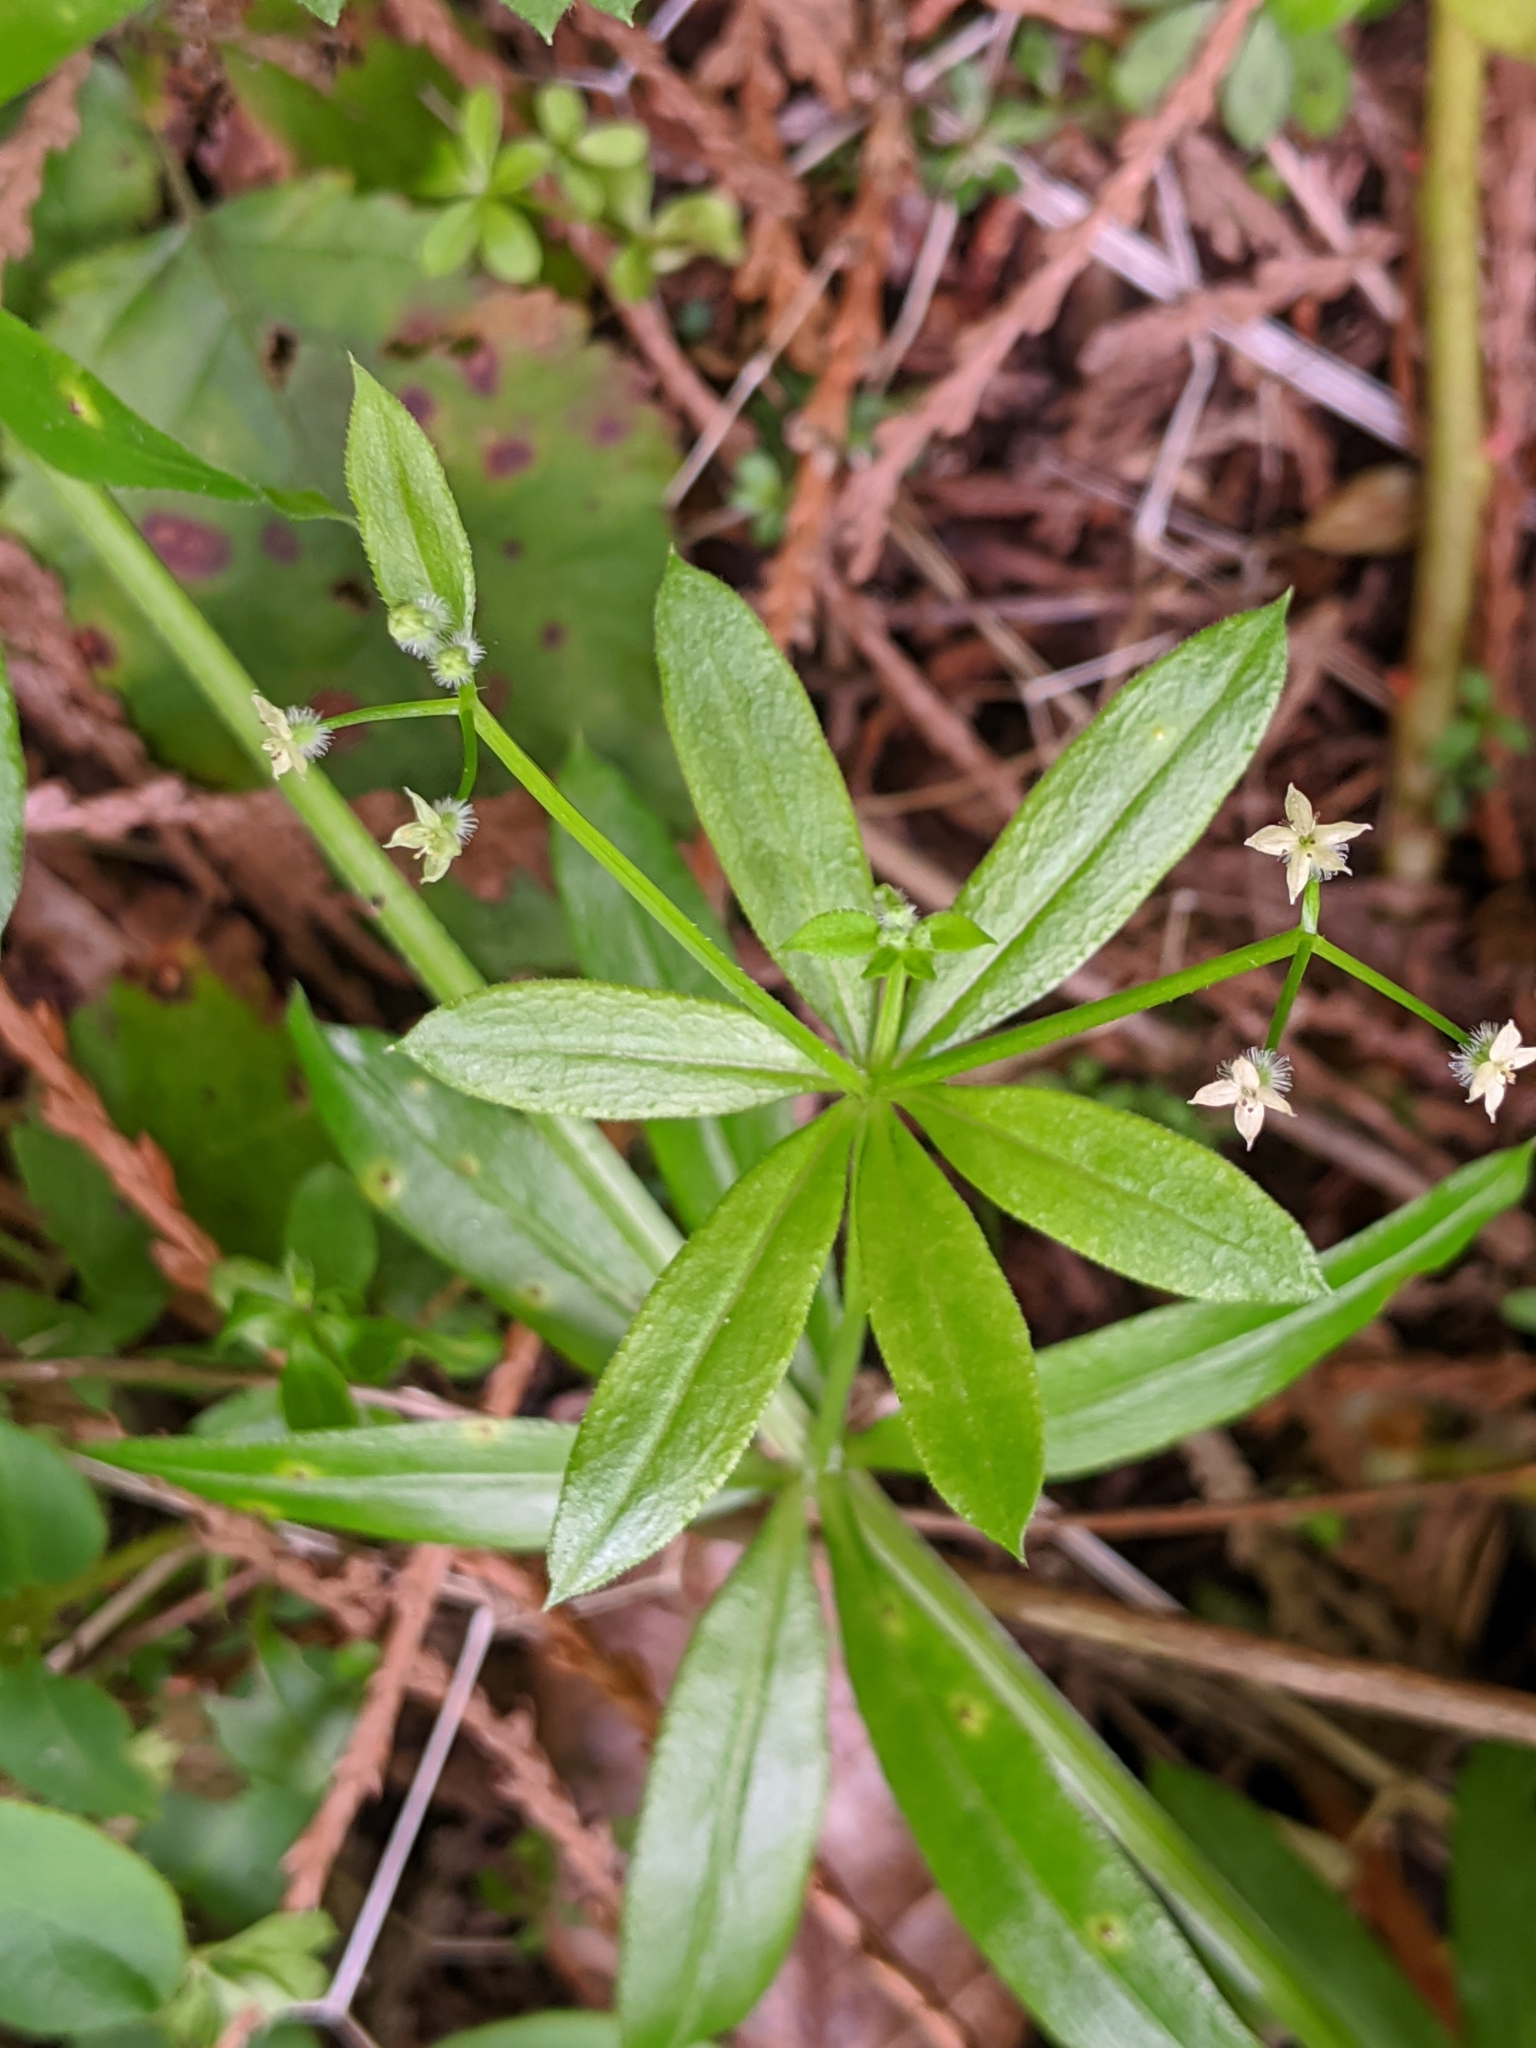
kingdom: Plantae
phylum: Tracheophyta
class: Magnoliopsida
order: Gentianales
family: Rubiaceae
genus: Galium
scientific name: Galium triflorum
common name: Fragrant bedstraw
